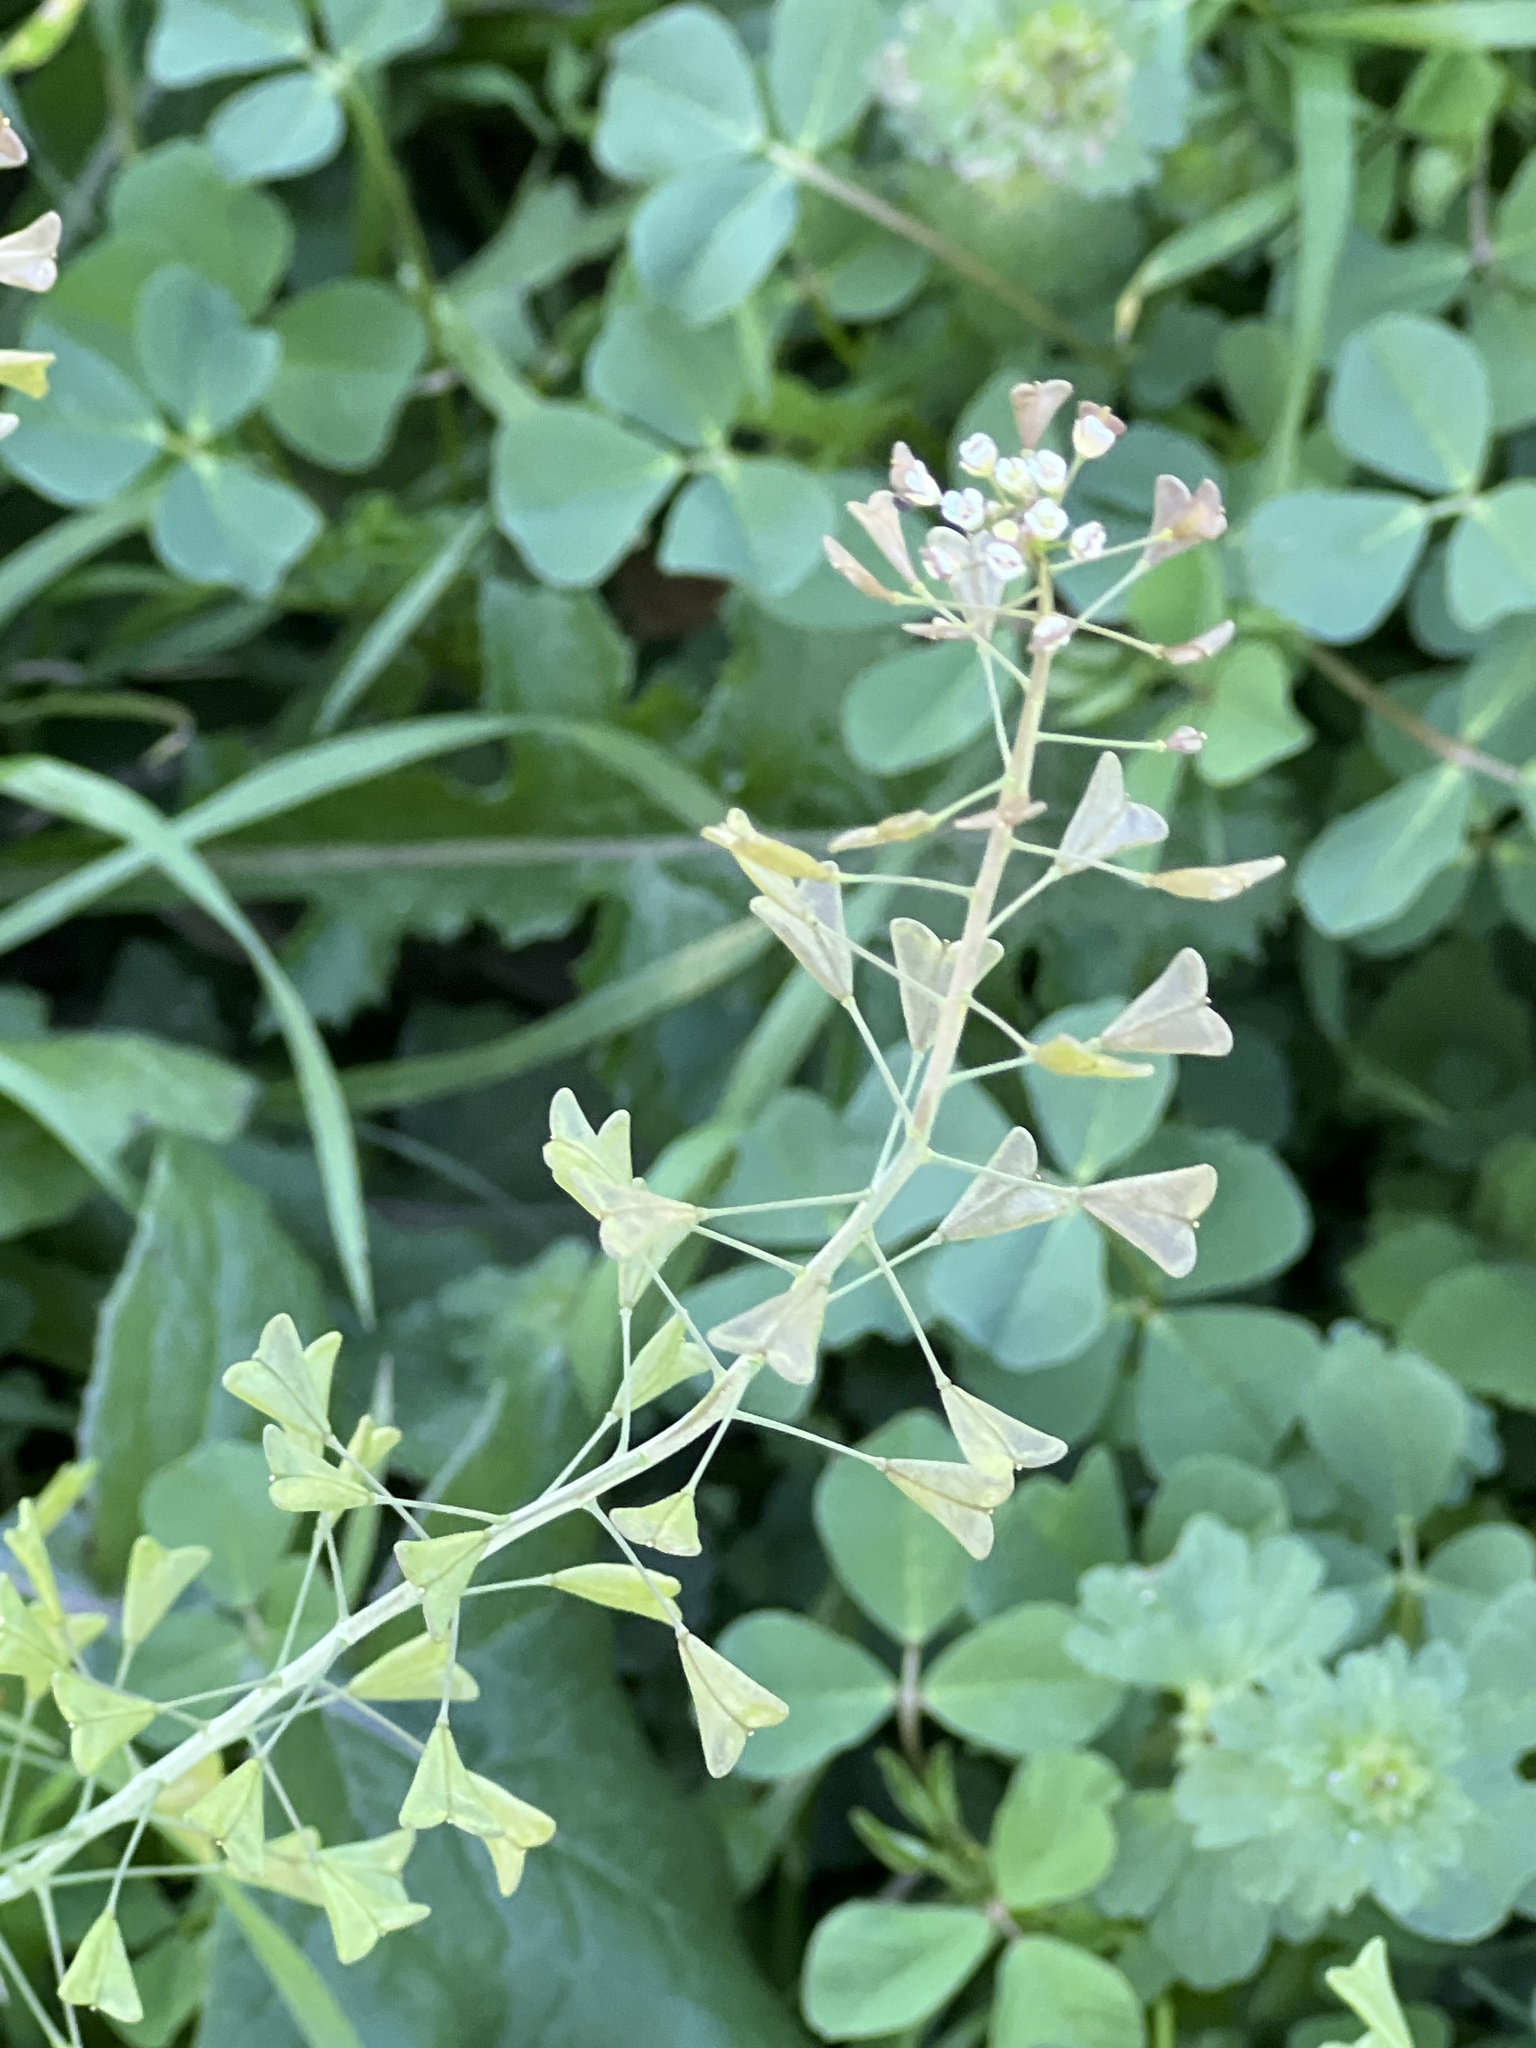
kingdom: Plantae
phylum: Tracheophyta
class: Magnoliopsida
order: Brassicales
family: Brassicaceae
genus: Capsella
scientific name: Capsella bursa-pastoris
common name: Shepherd's purse
